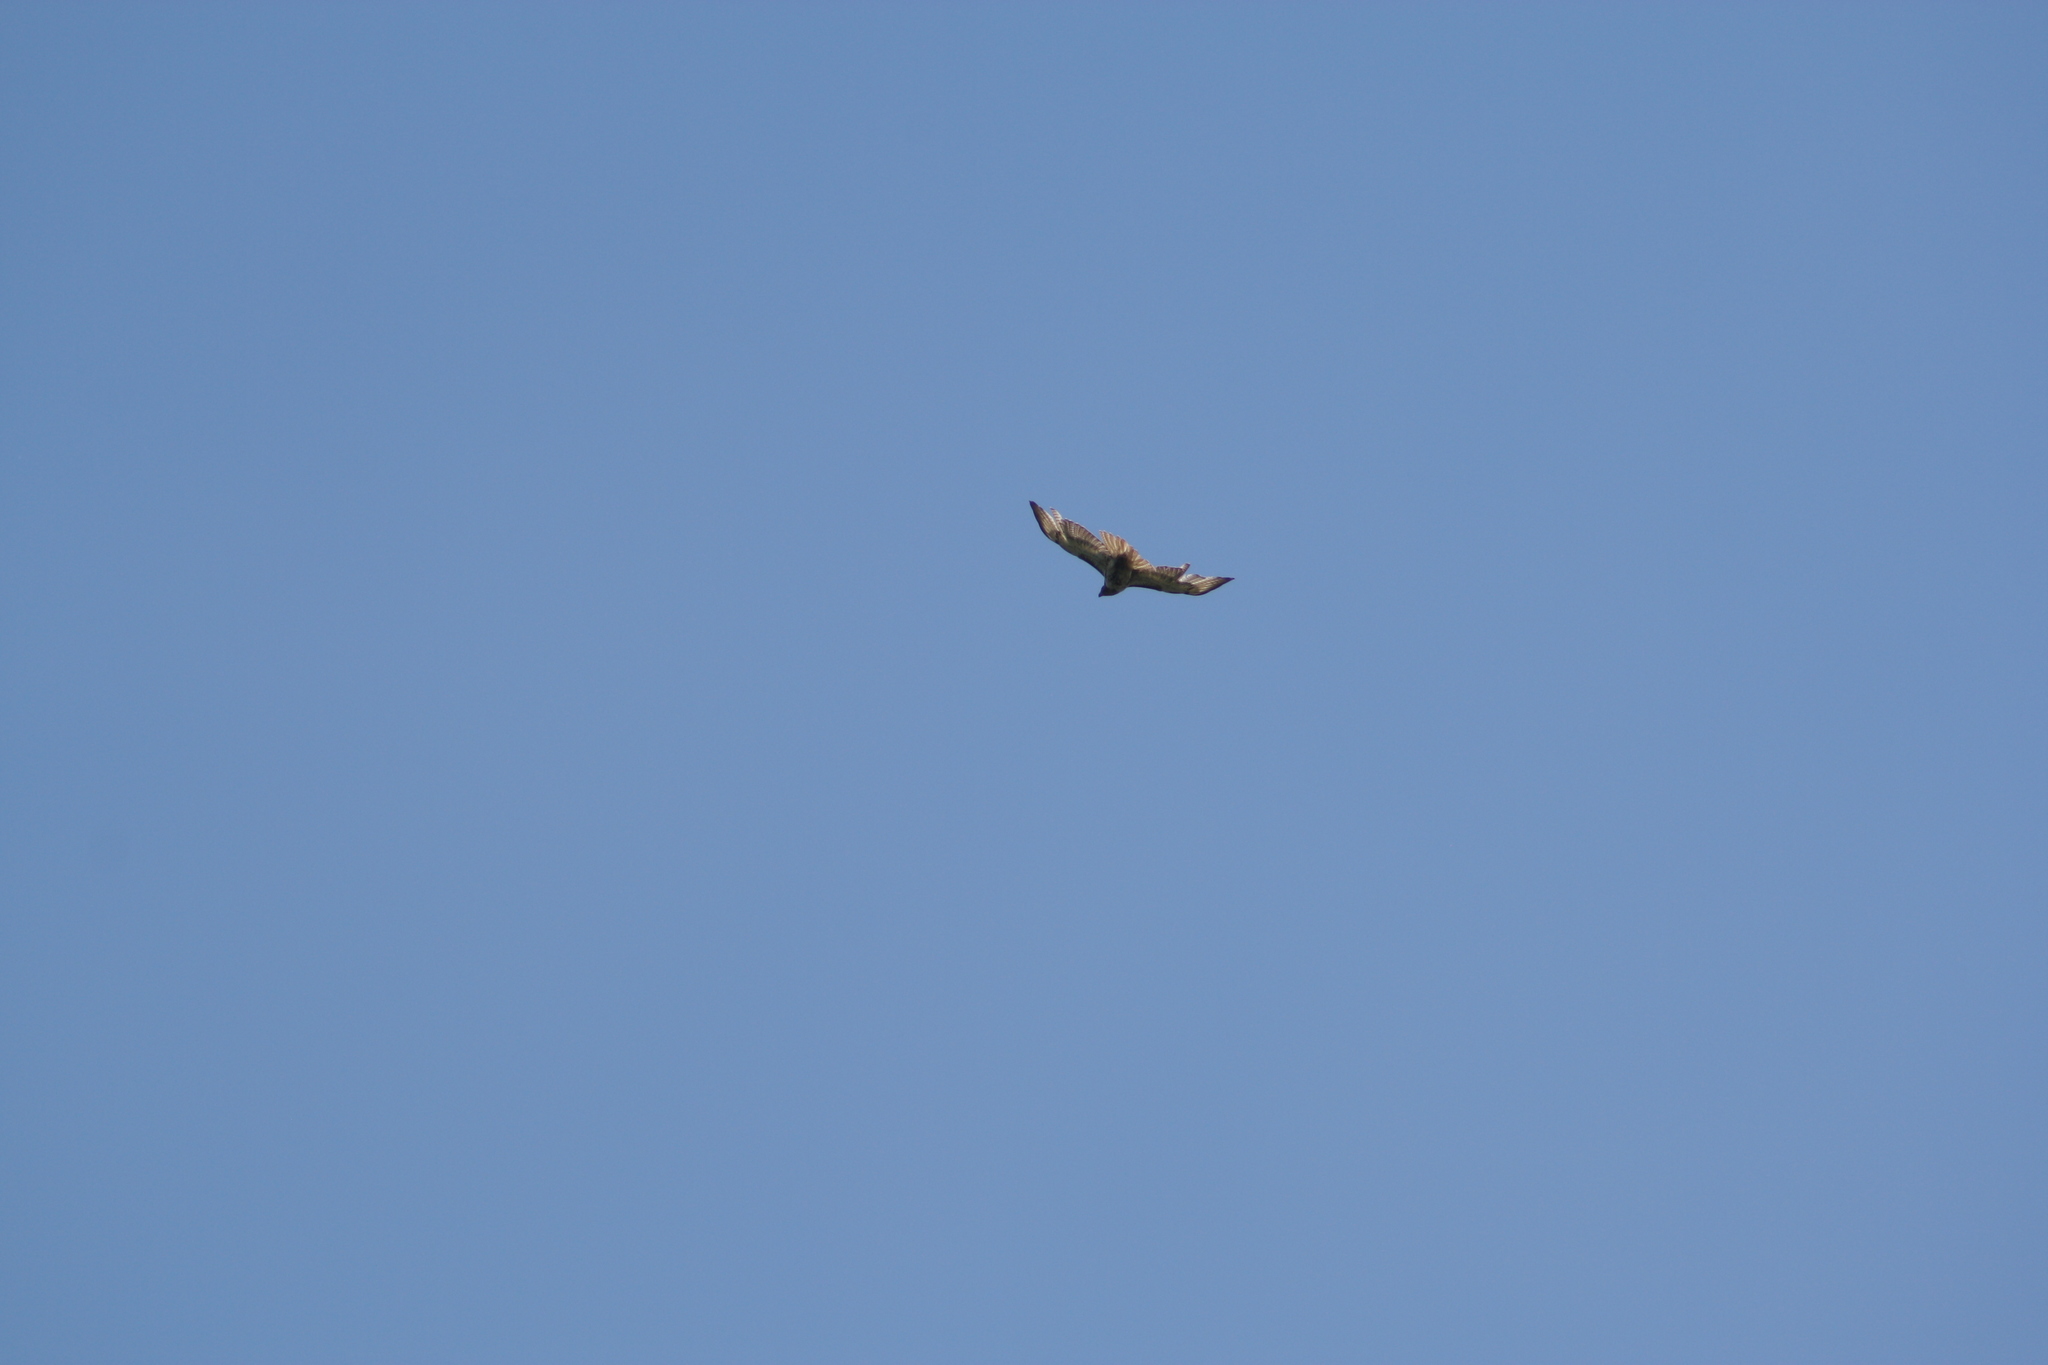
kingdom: Animalia
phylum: Chordata
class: Aves
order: Accipitriformes
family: Accipitridae
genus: Buteo
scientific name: Buteo jamaicensis
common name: Red-tailed hawk
